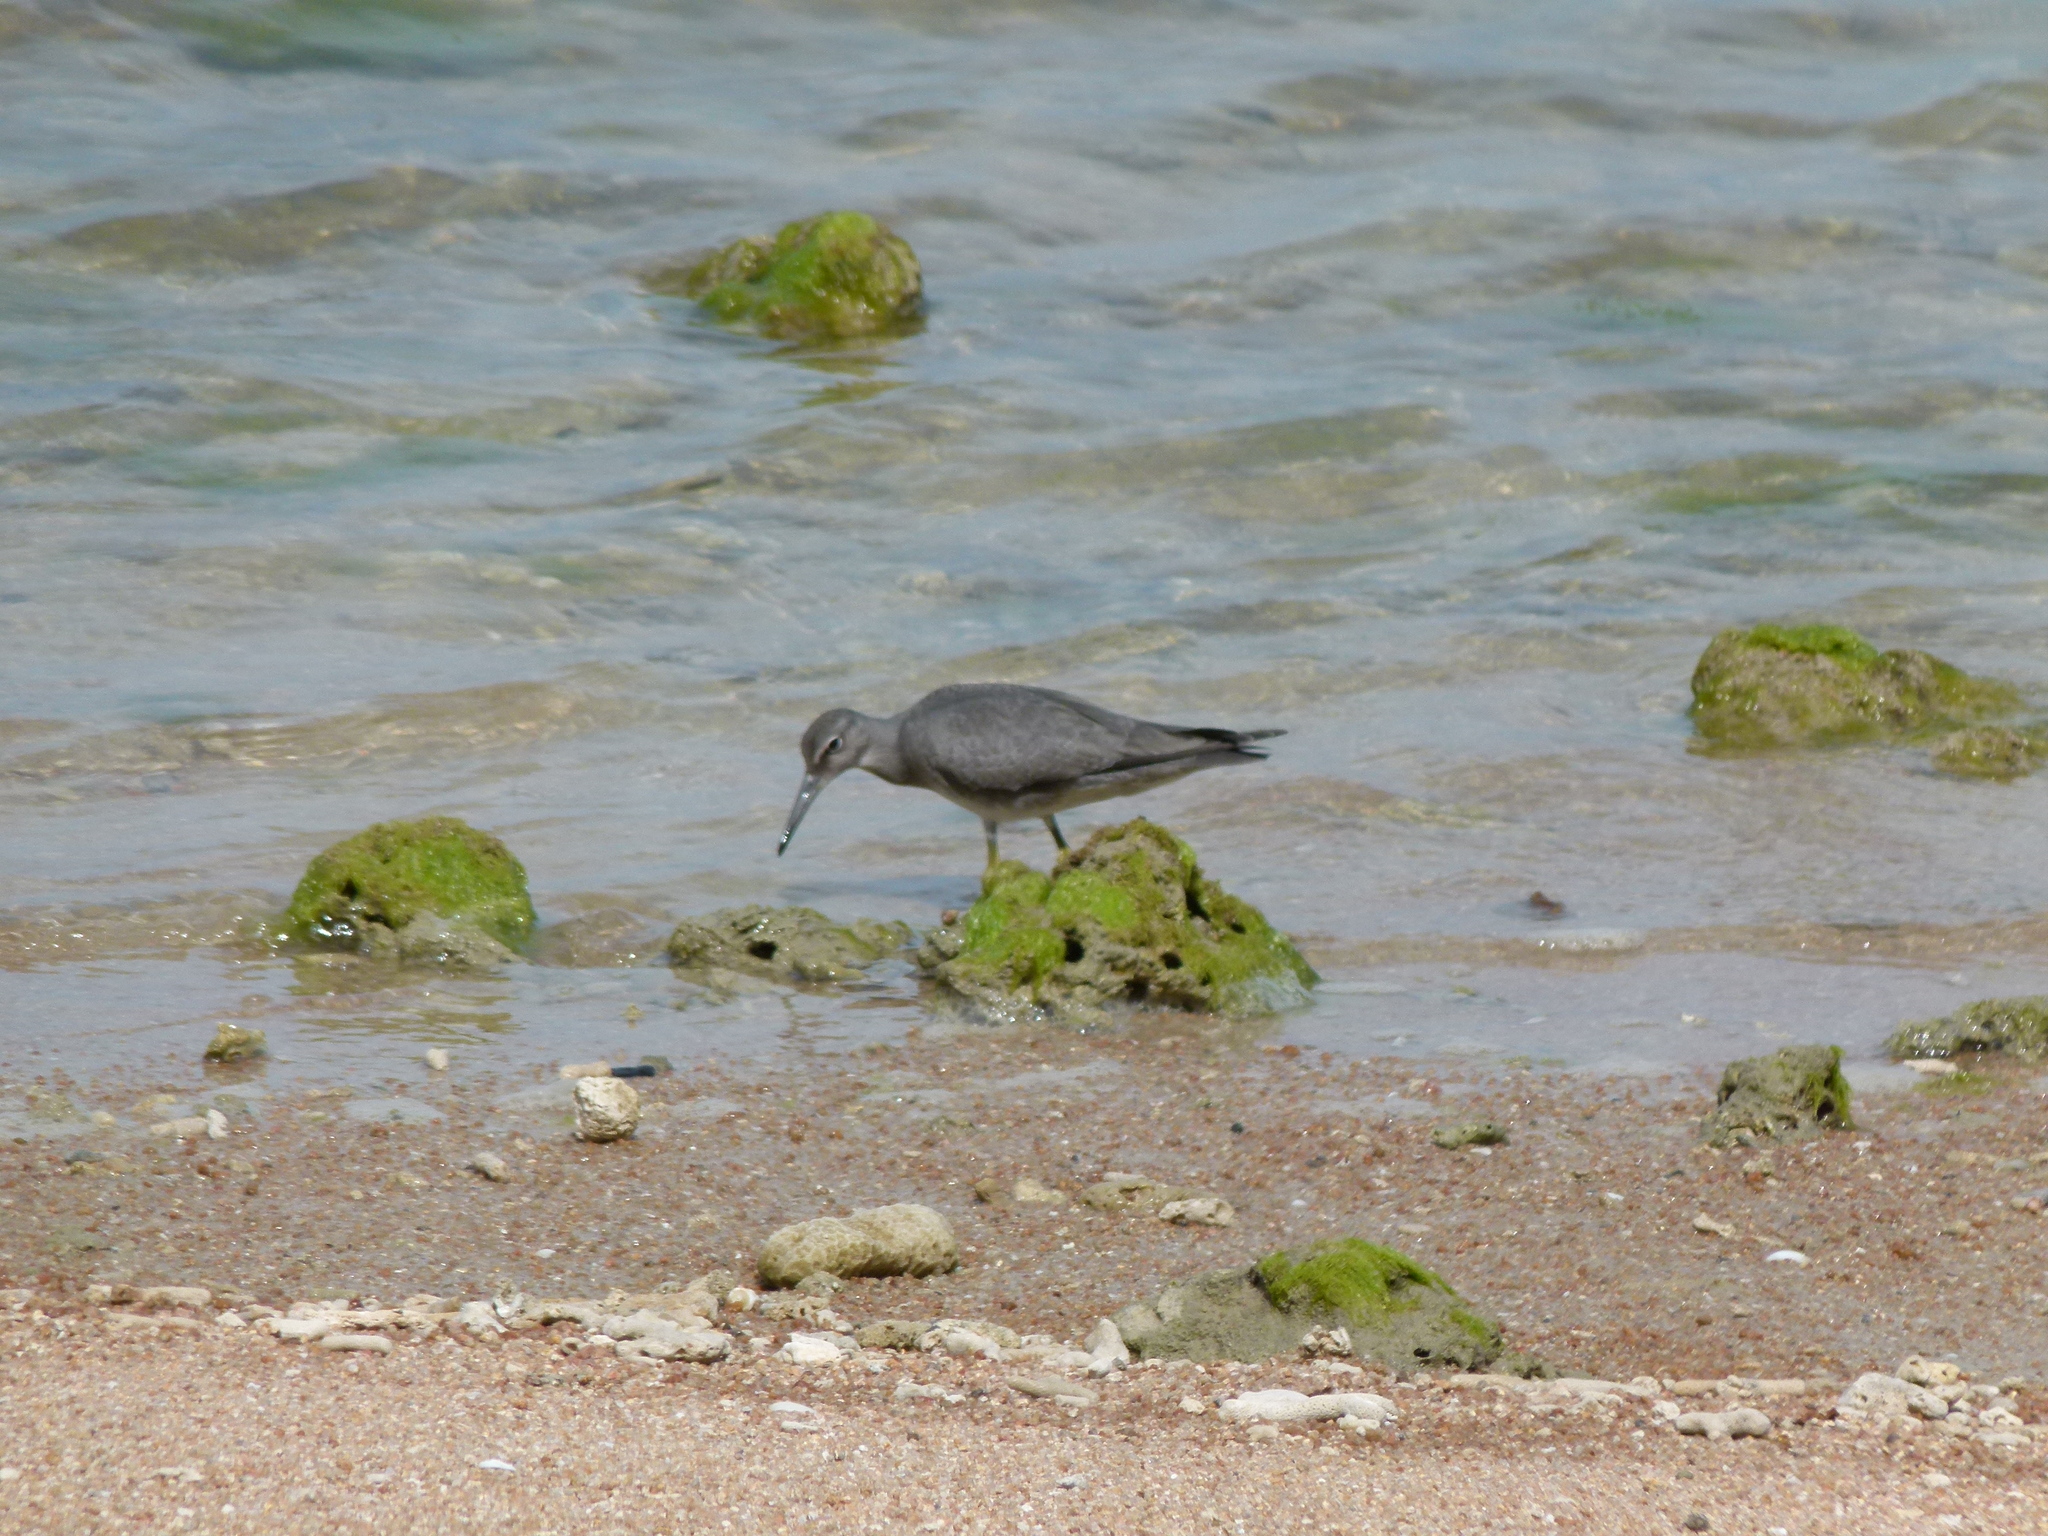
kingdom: Animalia
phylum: Chordata
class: Aves
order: Charadriiformes
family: Scolopacidae
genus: Tringa
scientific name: Tringa incana
